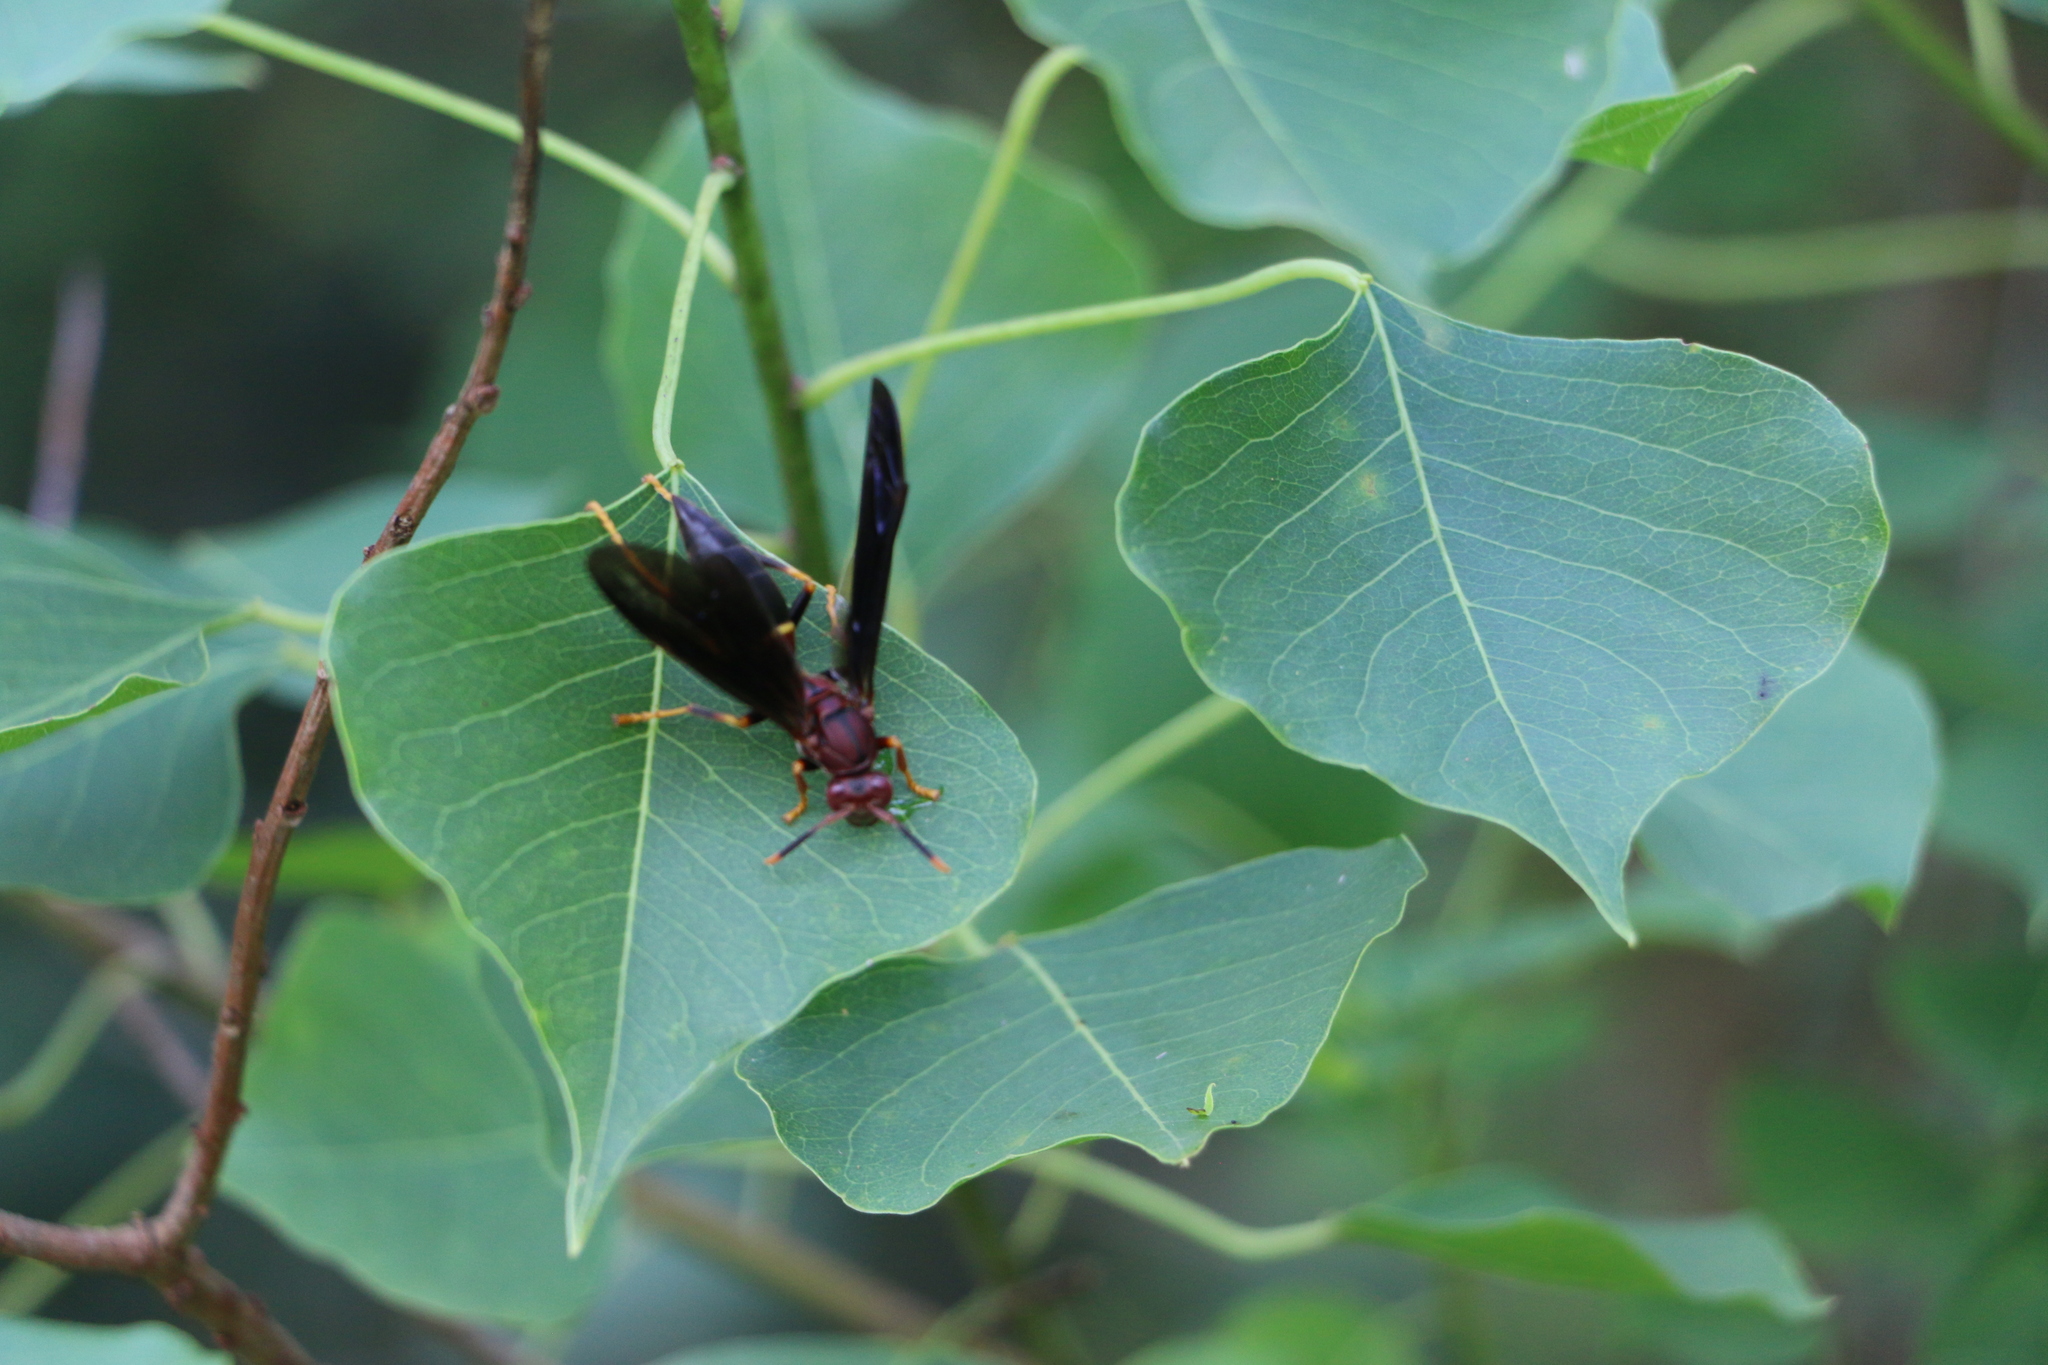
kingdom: Animalia
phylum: Arthropoda
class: Insecta
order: Hymenoptera
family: Eumenidae
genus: Polistes
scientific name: Polistes annularis
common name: Ringed paper wasp
